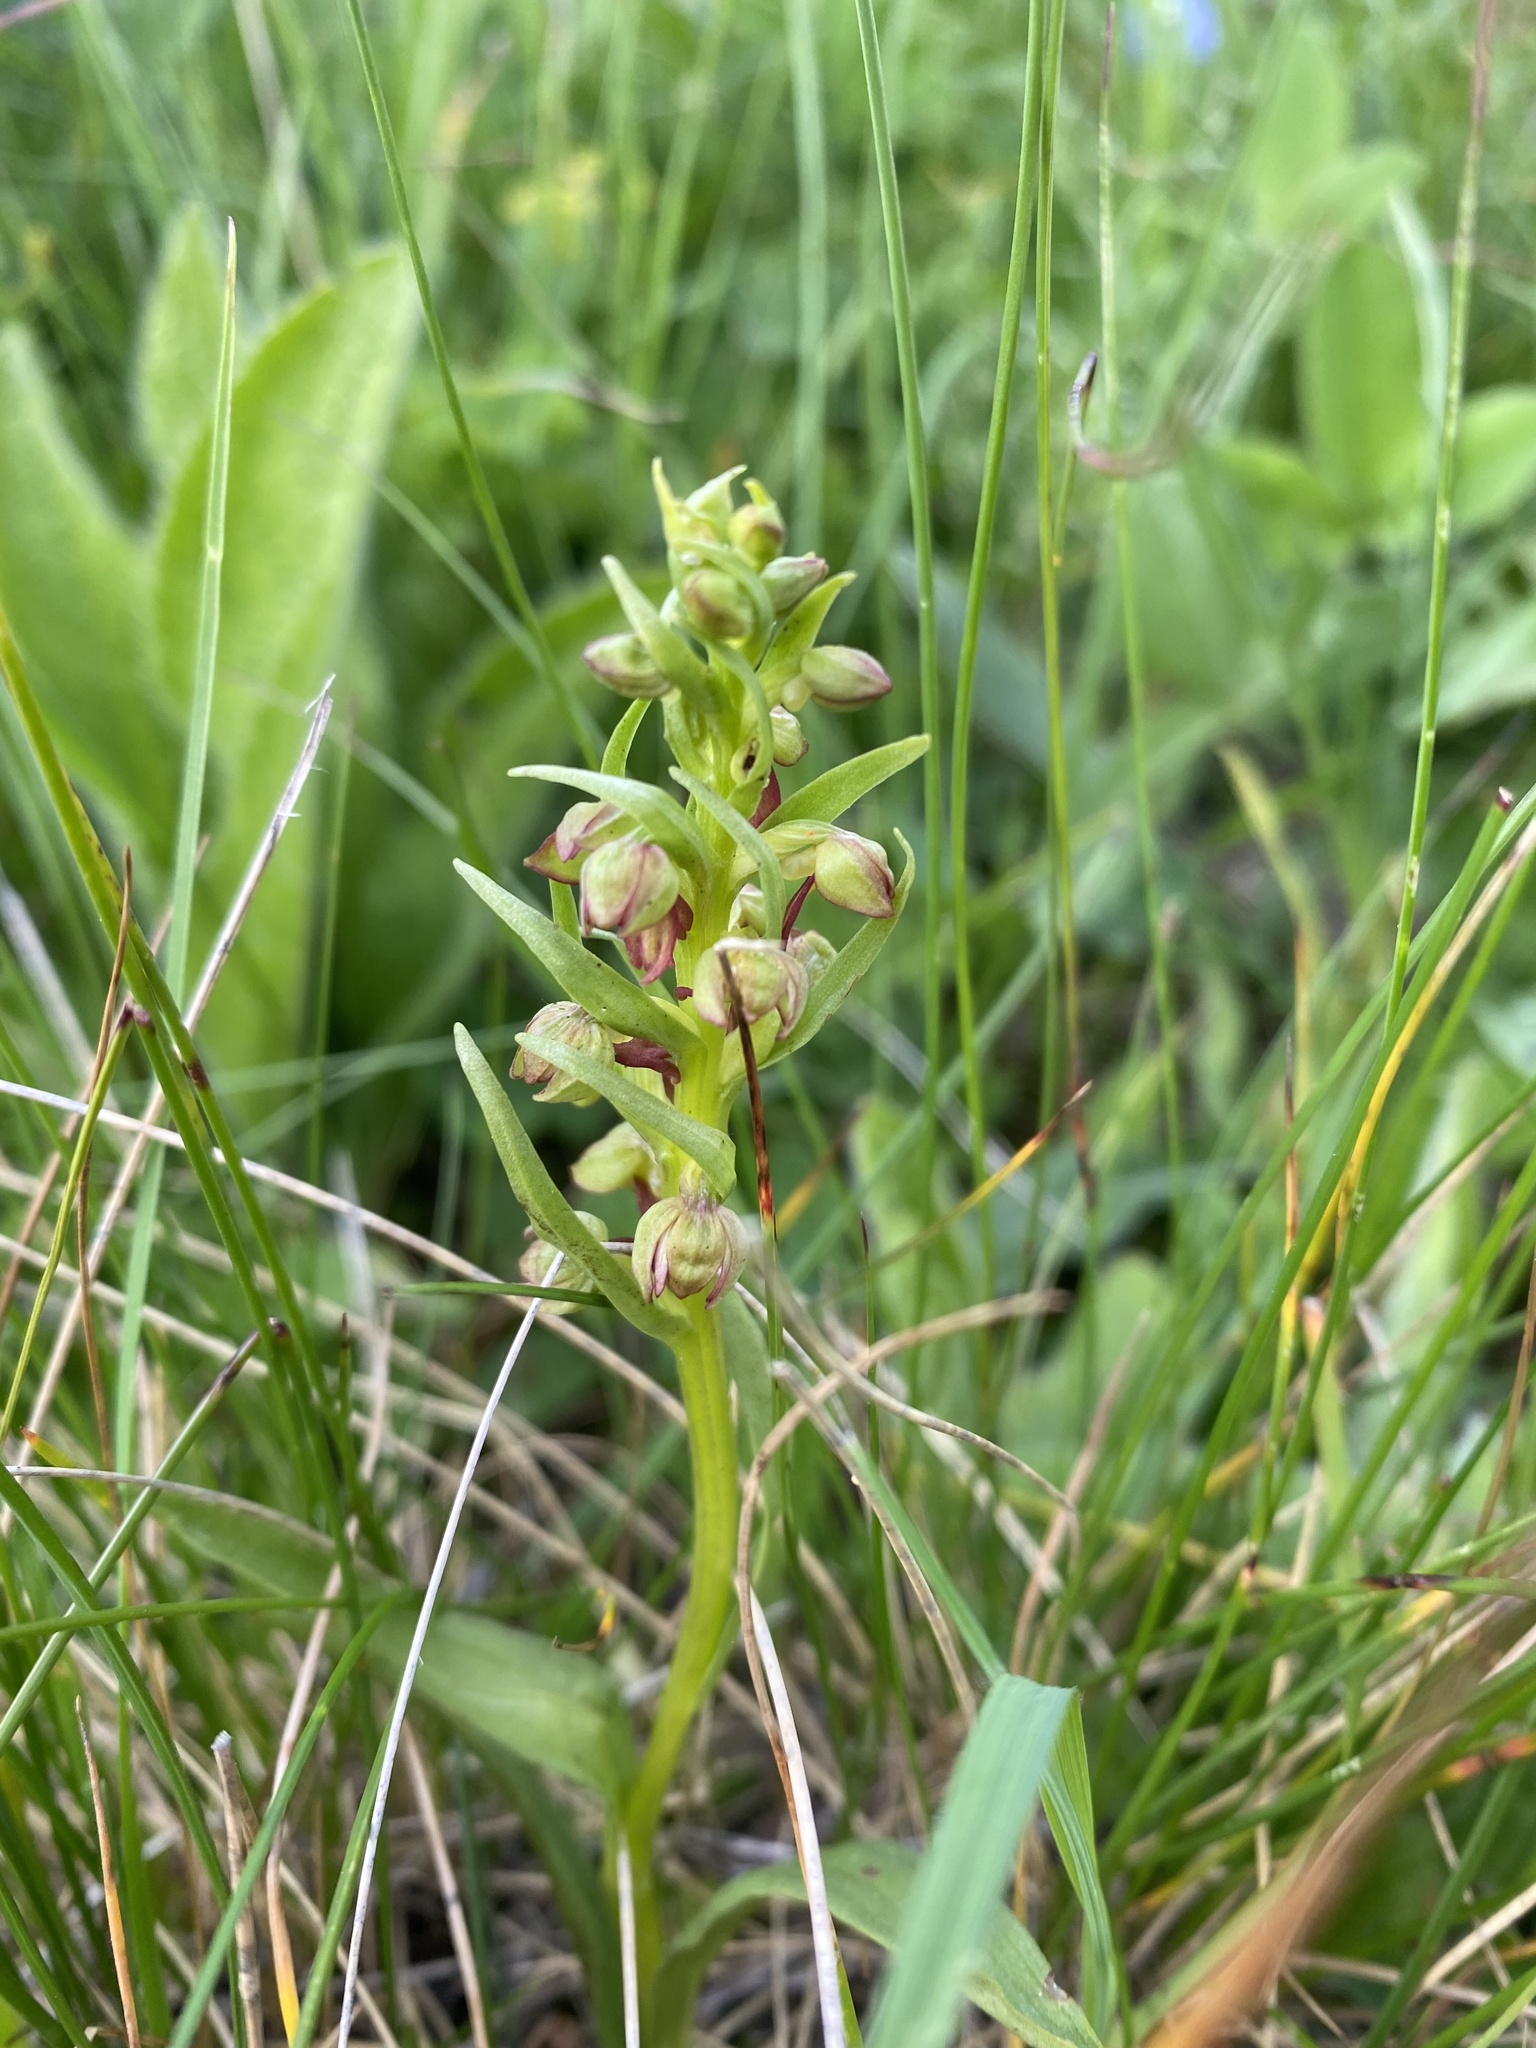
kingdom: Plantae
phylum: Tracheophyta
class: Liliopsida
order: Asparagales
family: Orchidaceae
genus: Dactylorhiza
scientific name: Dactylorhiza viridis
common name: Longbract frog orchid
